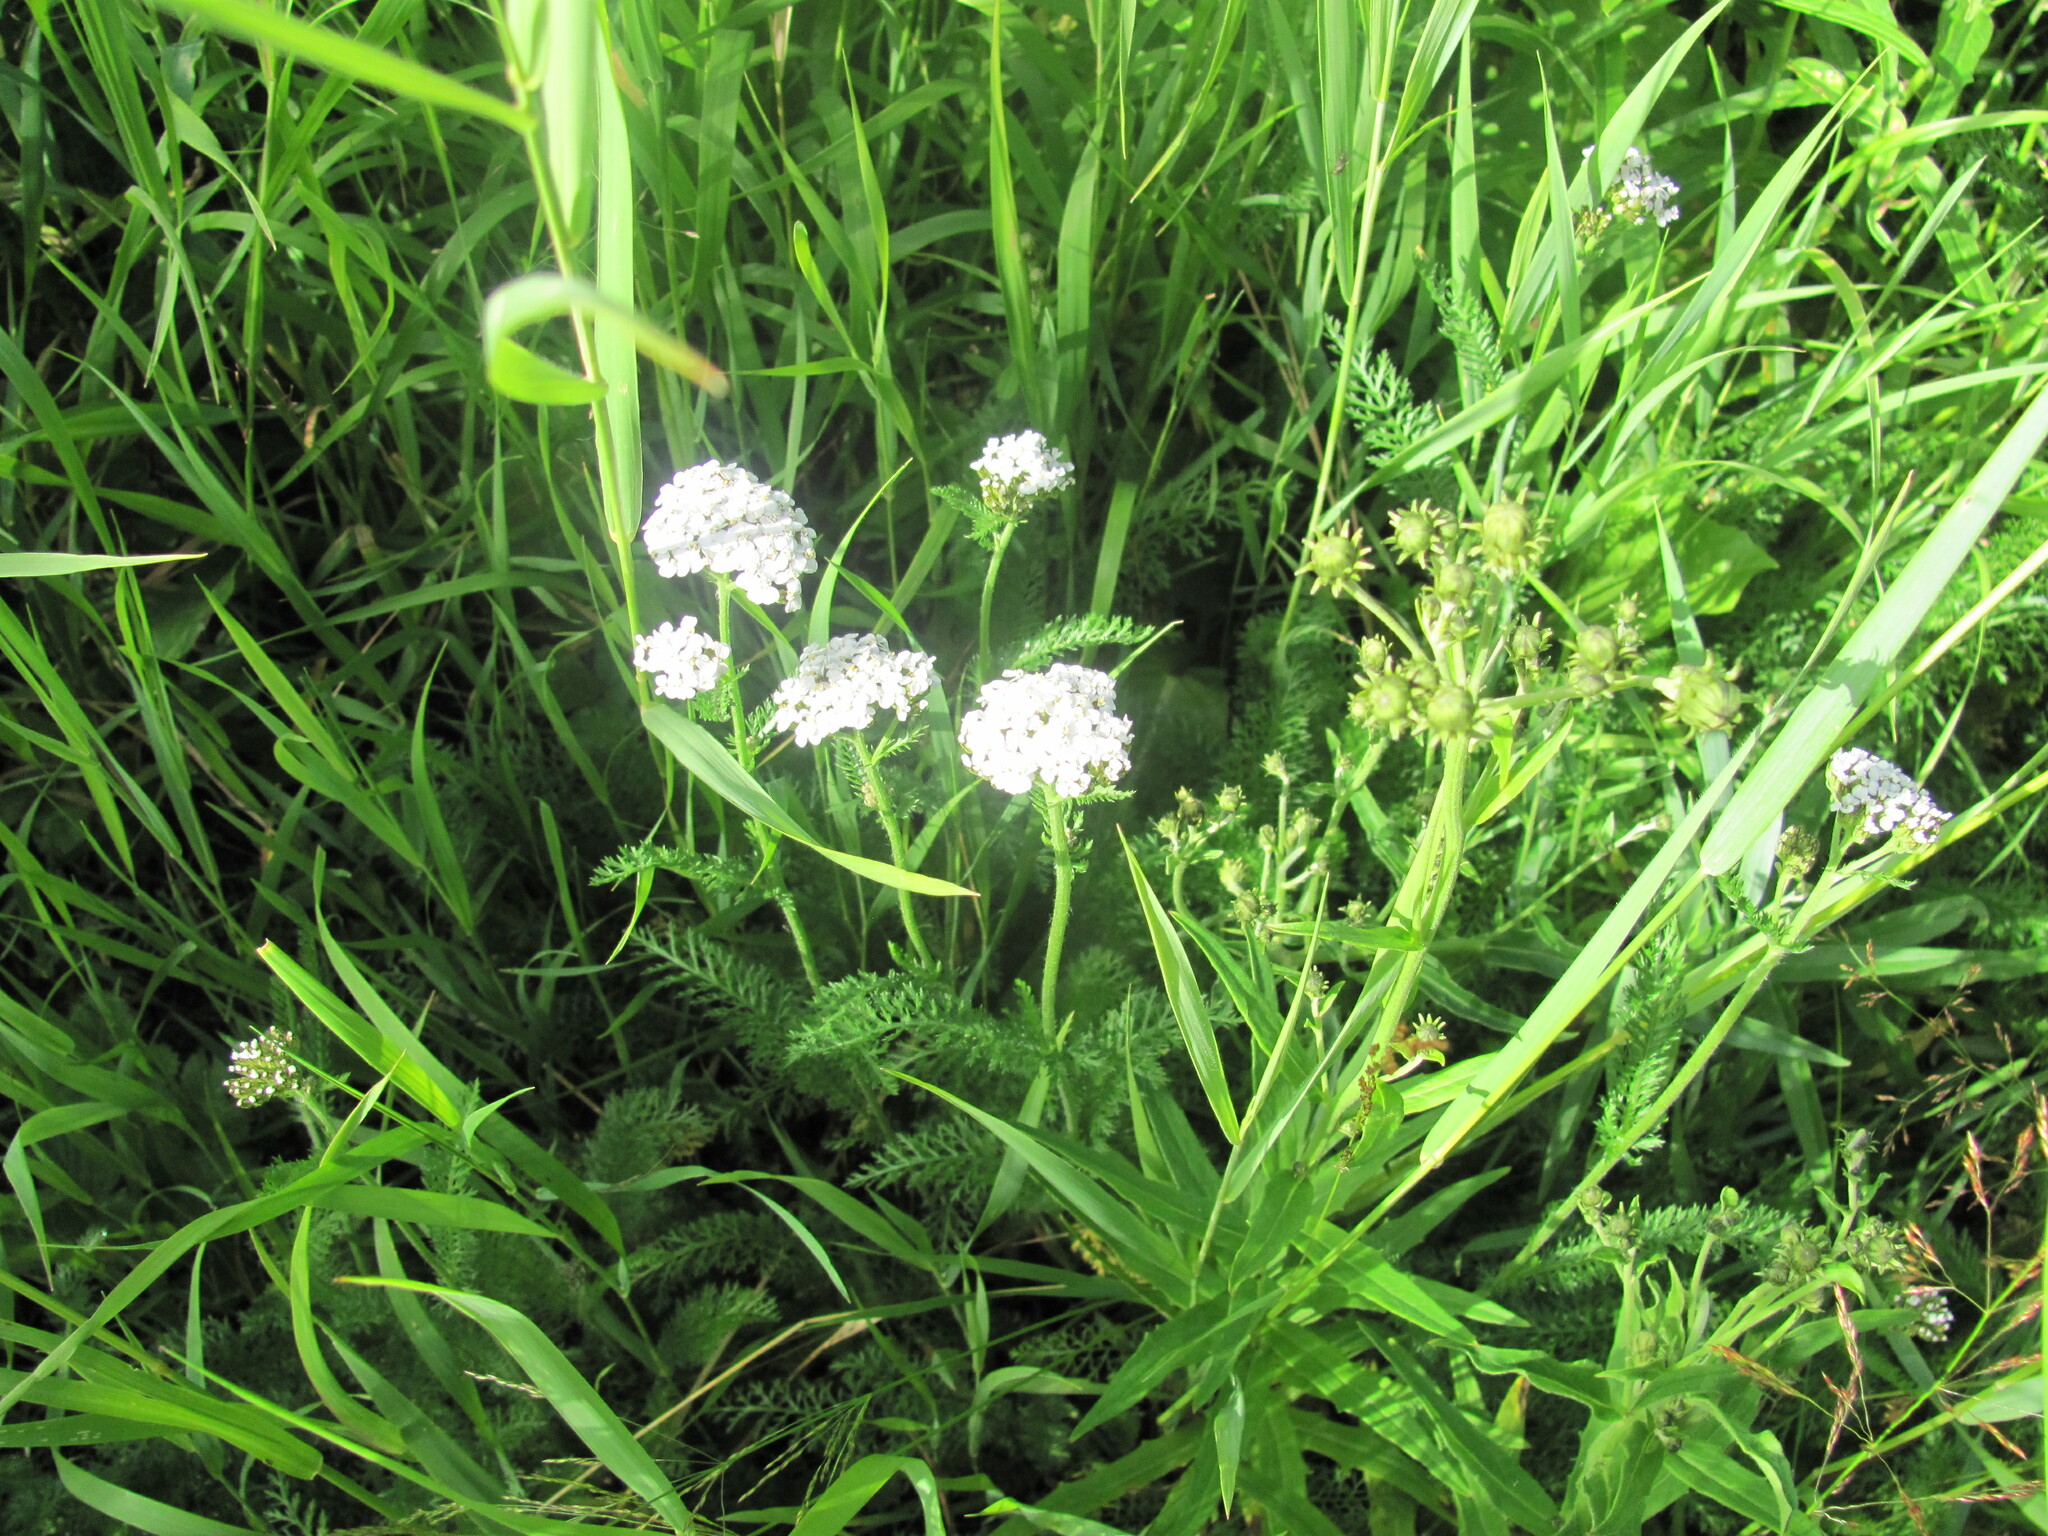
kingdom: Plantae
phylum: Tracheophyta
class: Magnoliopsida
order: Asterales
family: Asteraceae
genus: Achillea
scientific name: Achillea millefolium
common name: Yarrow
